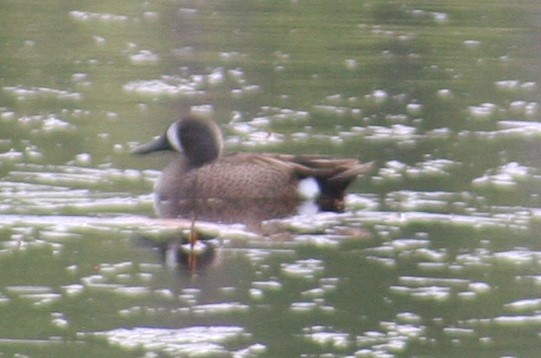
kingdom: Animalia
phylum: Chordata
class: Aves
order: Anseriformes
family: Anatidae
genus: Spatula
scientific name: Spatula discors
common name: Blue-winged teal
